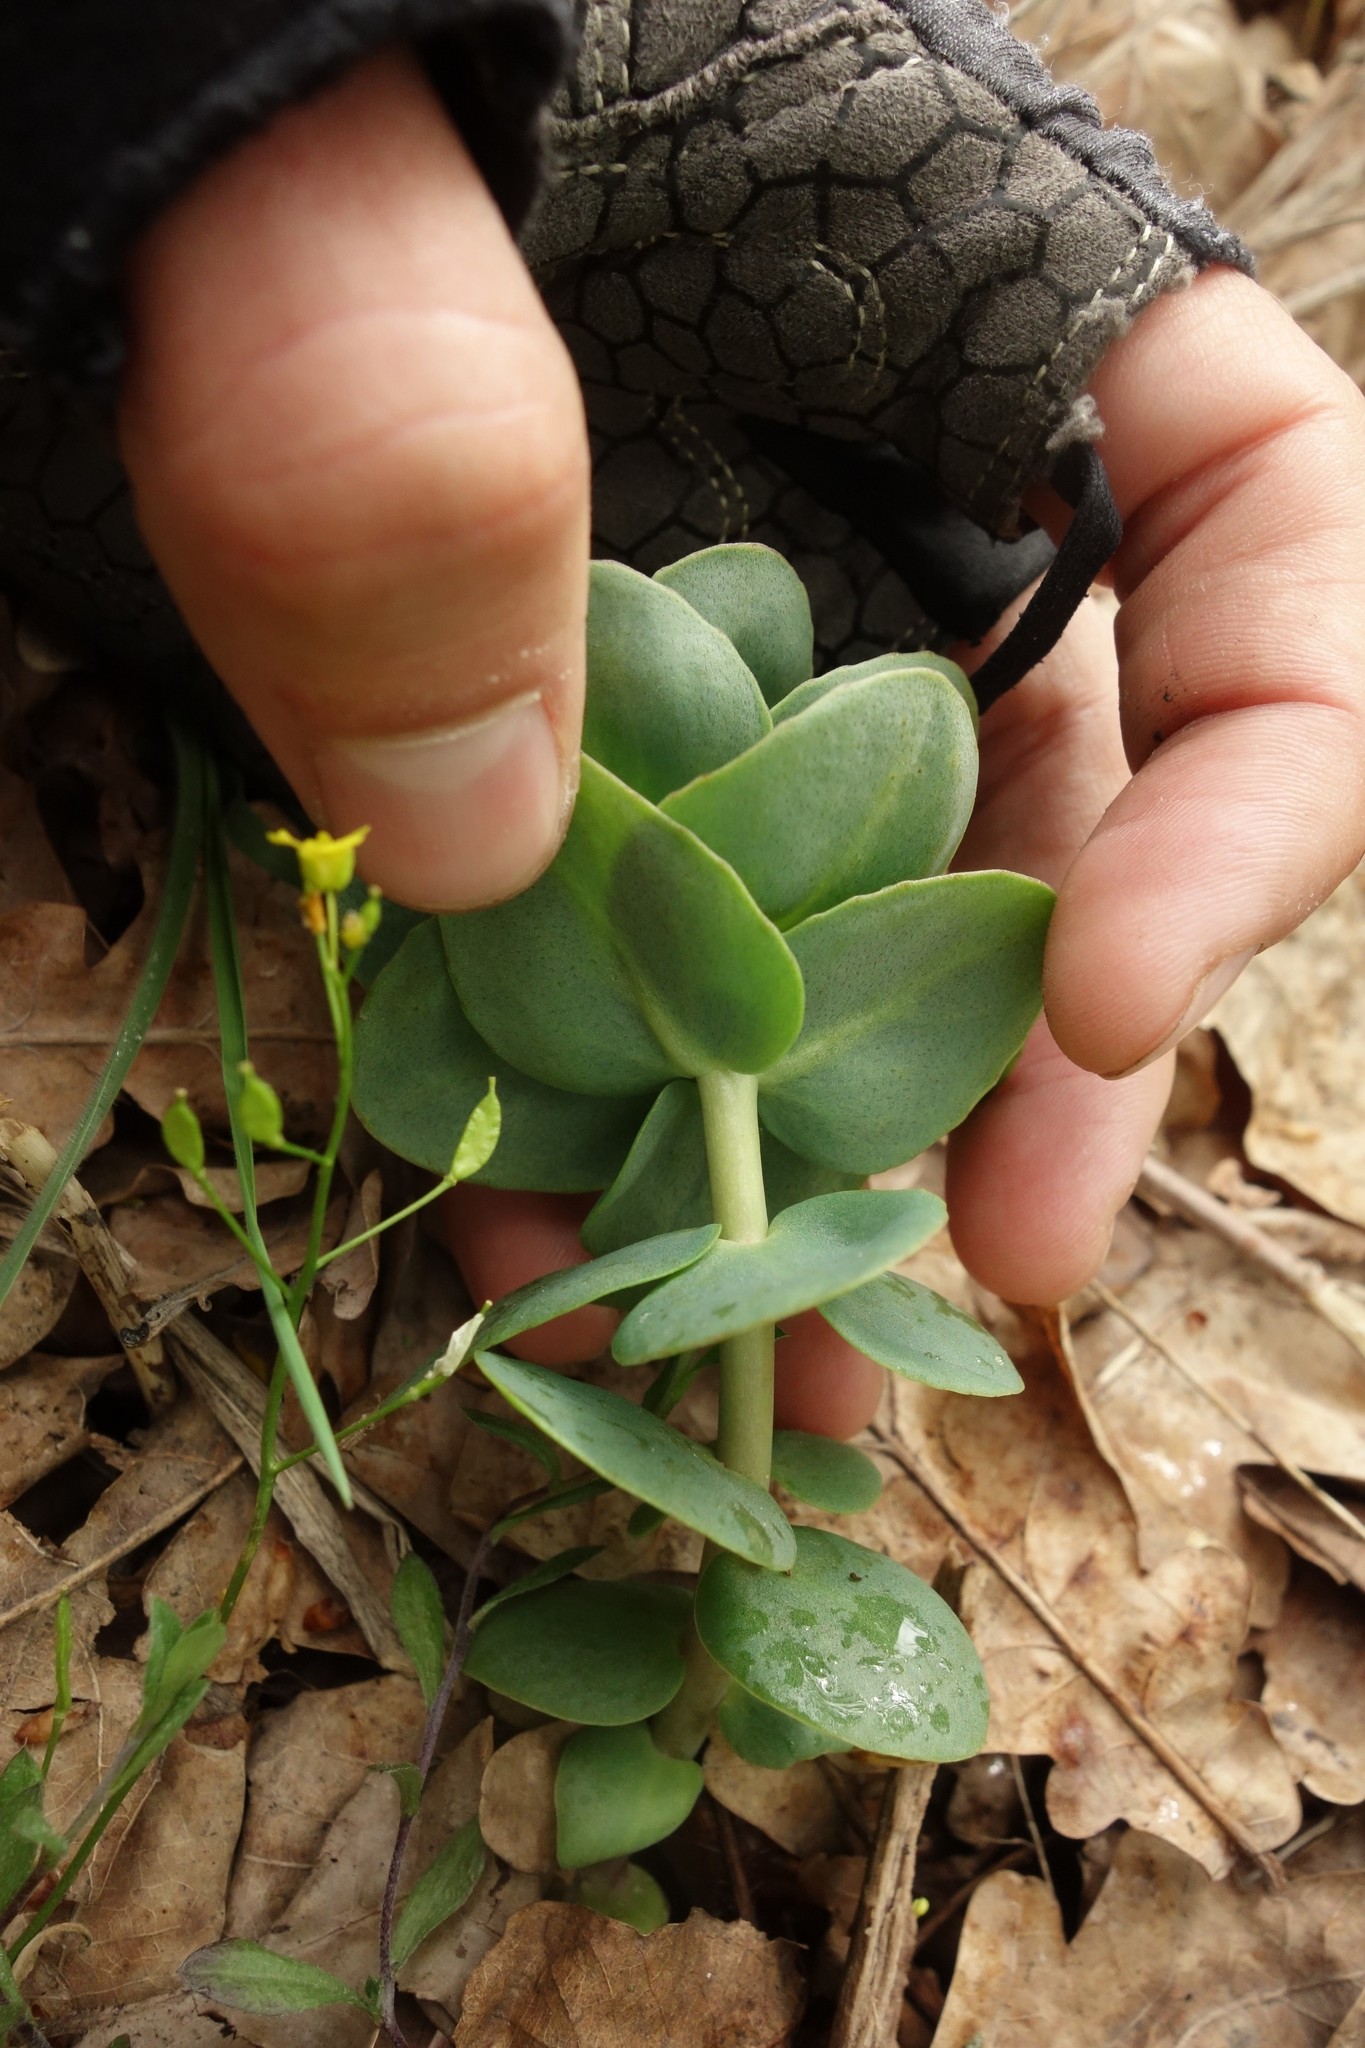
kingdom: Plantae
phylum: Tracheophyta
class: Magnoliopsida
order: Saxifragales
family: Crassulaceae
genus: Hylotelephium
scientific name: Hylotelephium maximum
